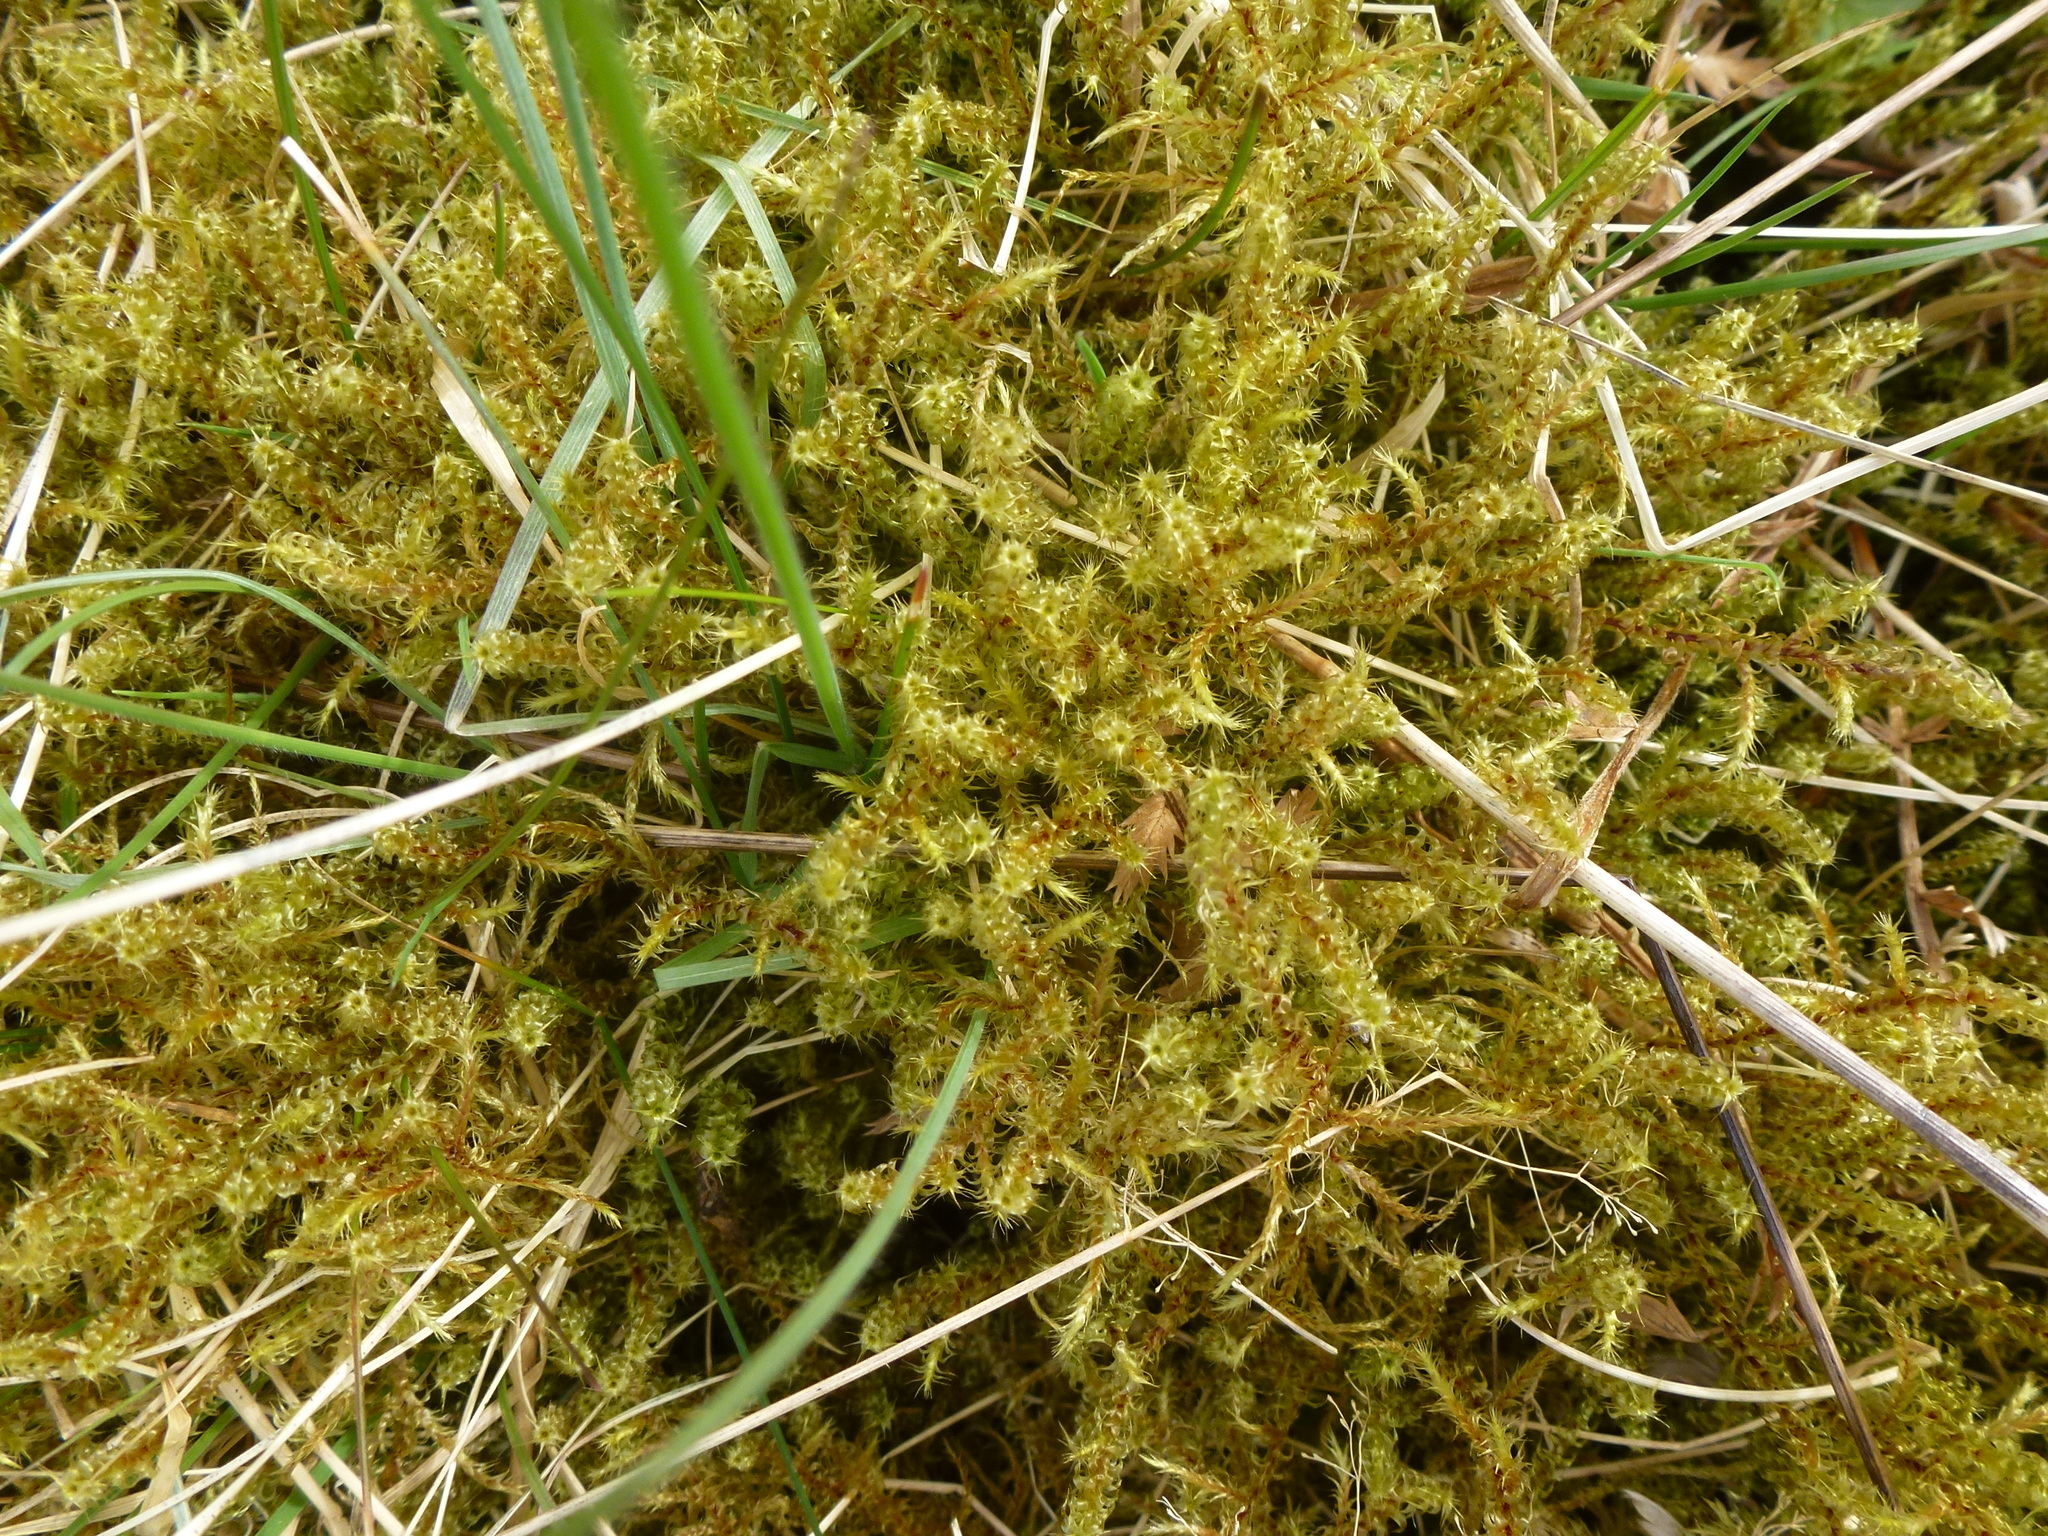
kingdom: Plantae
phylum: Bryophyta
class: Bryopsida
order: Hypnales
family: Hylocomiaceae
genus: Rhytidiadelphus
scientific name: Rhytidiadelphus squarrosus
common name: Springy turf-moss
